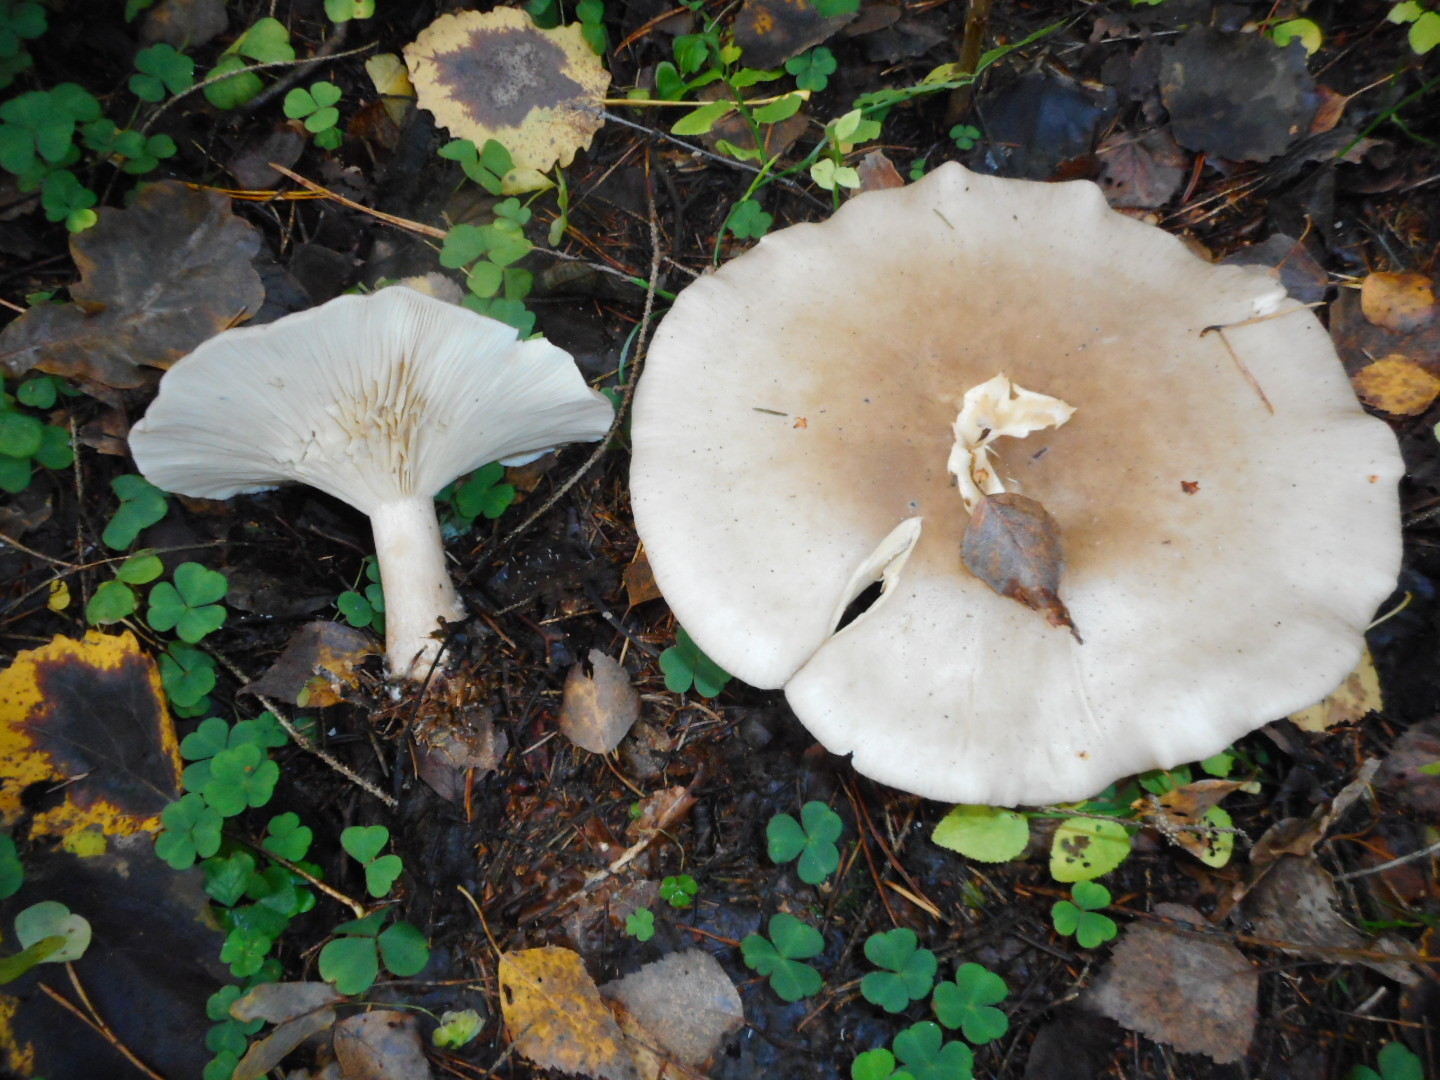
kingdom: Fungi
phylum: Basidiomycota
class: Agaricomycetes
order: Agaricales
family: Tricholomataceae
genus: Clitocybe
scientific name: Clitocybe nebularis
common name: Clouded agaric
